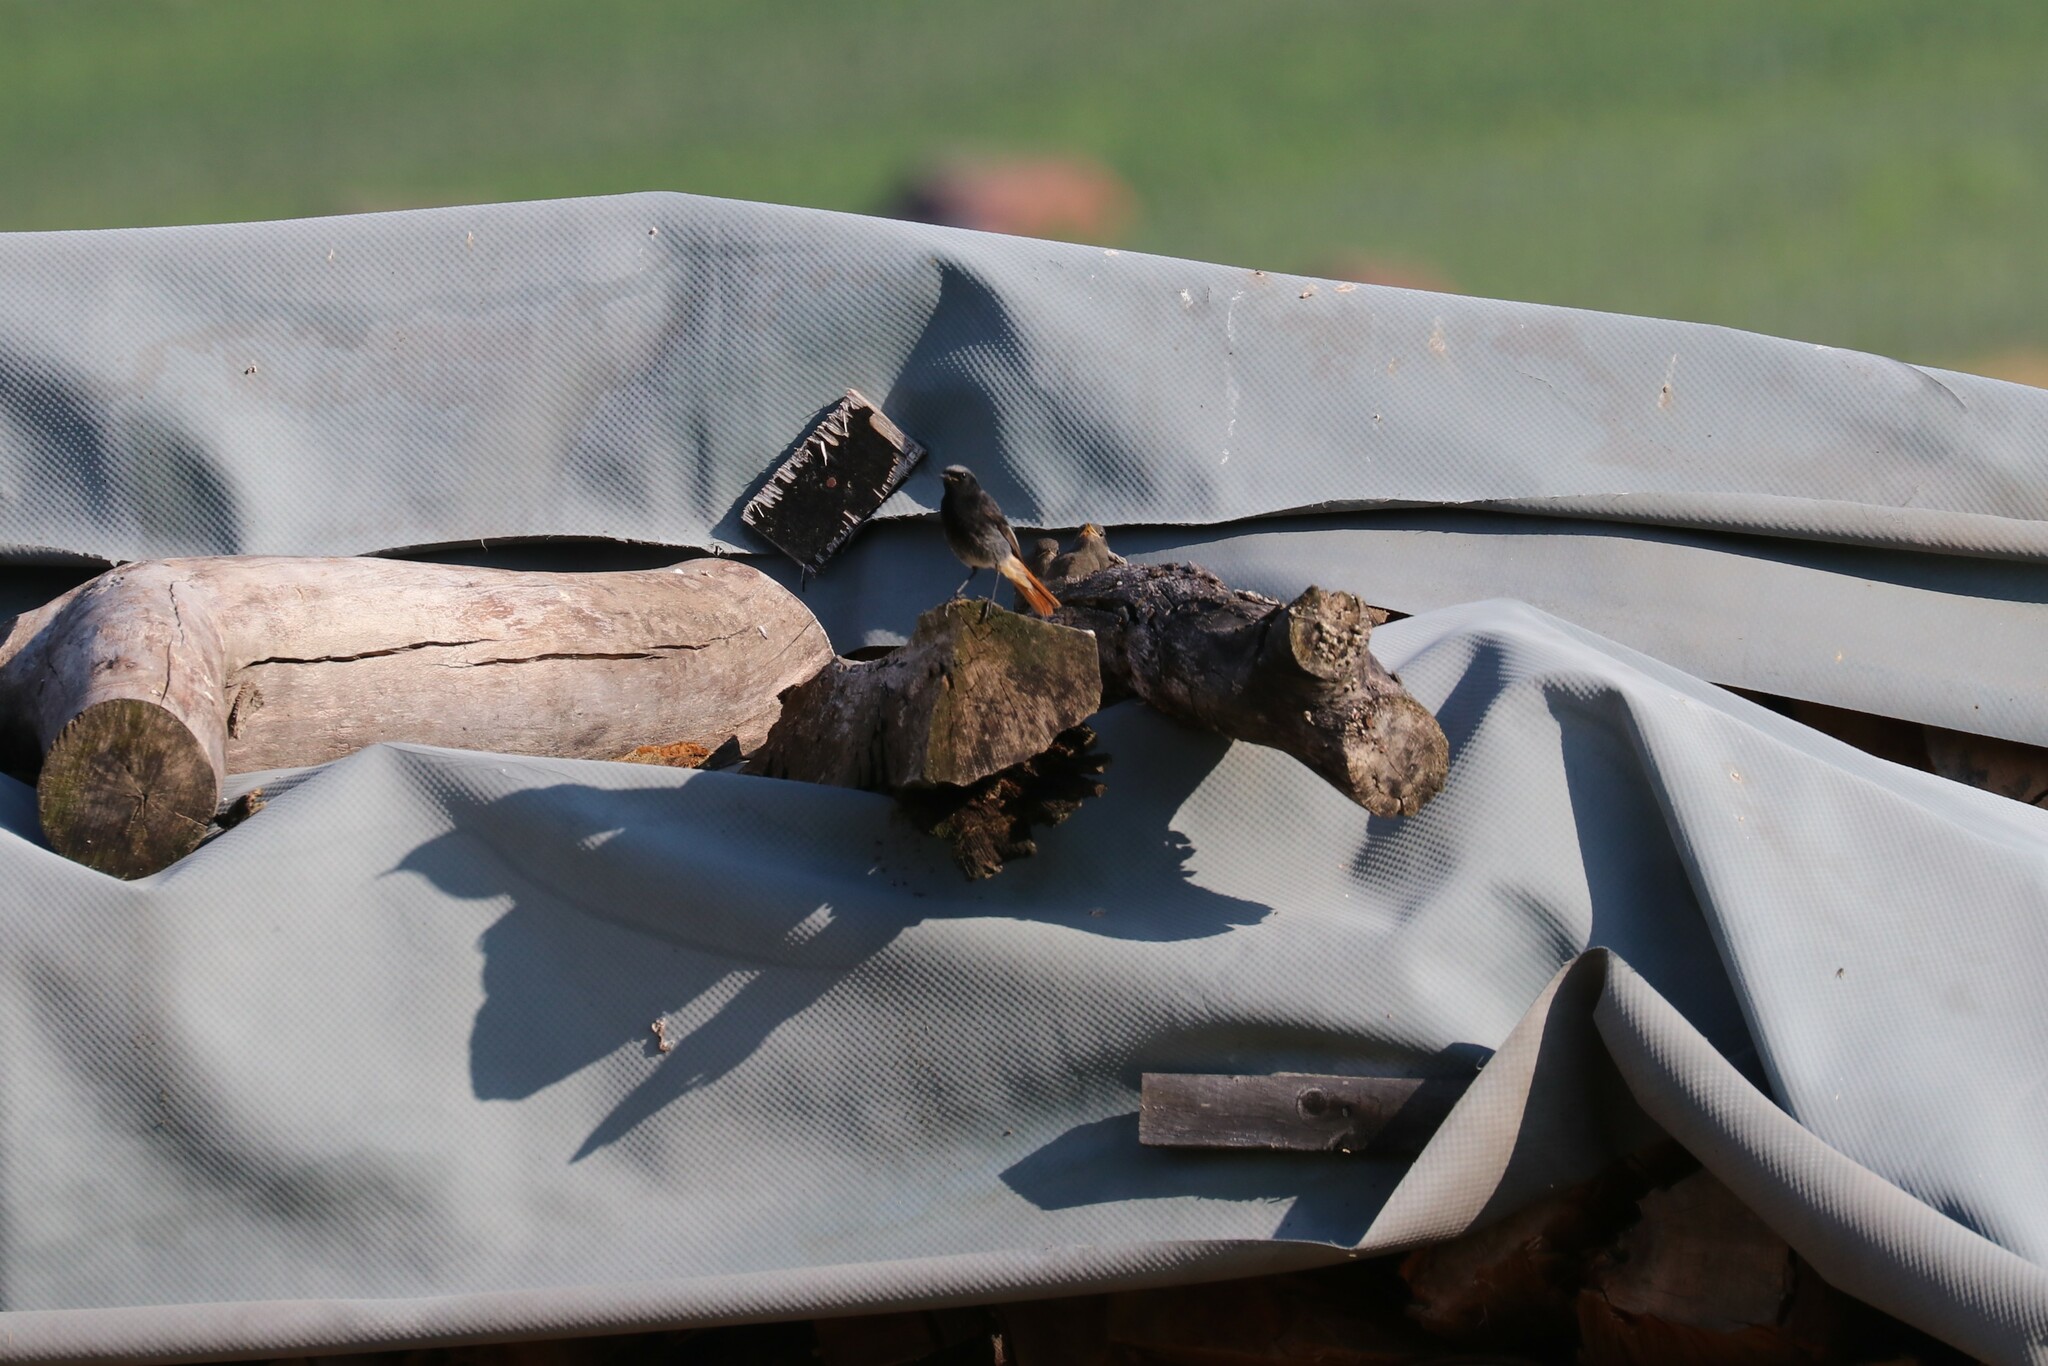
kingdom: Animalia
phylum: Chordata
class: Aves
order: Passeriformes
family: Muscicapidae
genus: Phoenicurus
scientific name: Phoenicurus ochruros
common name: Black redstart
